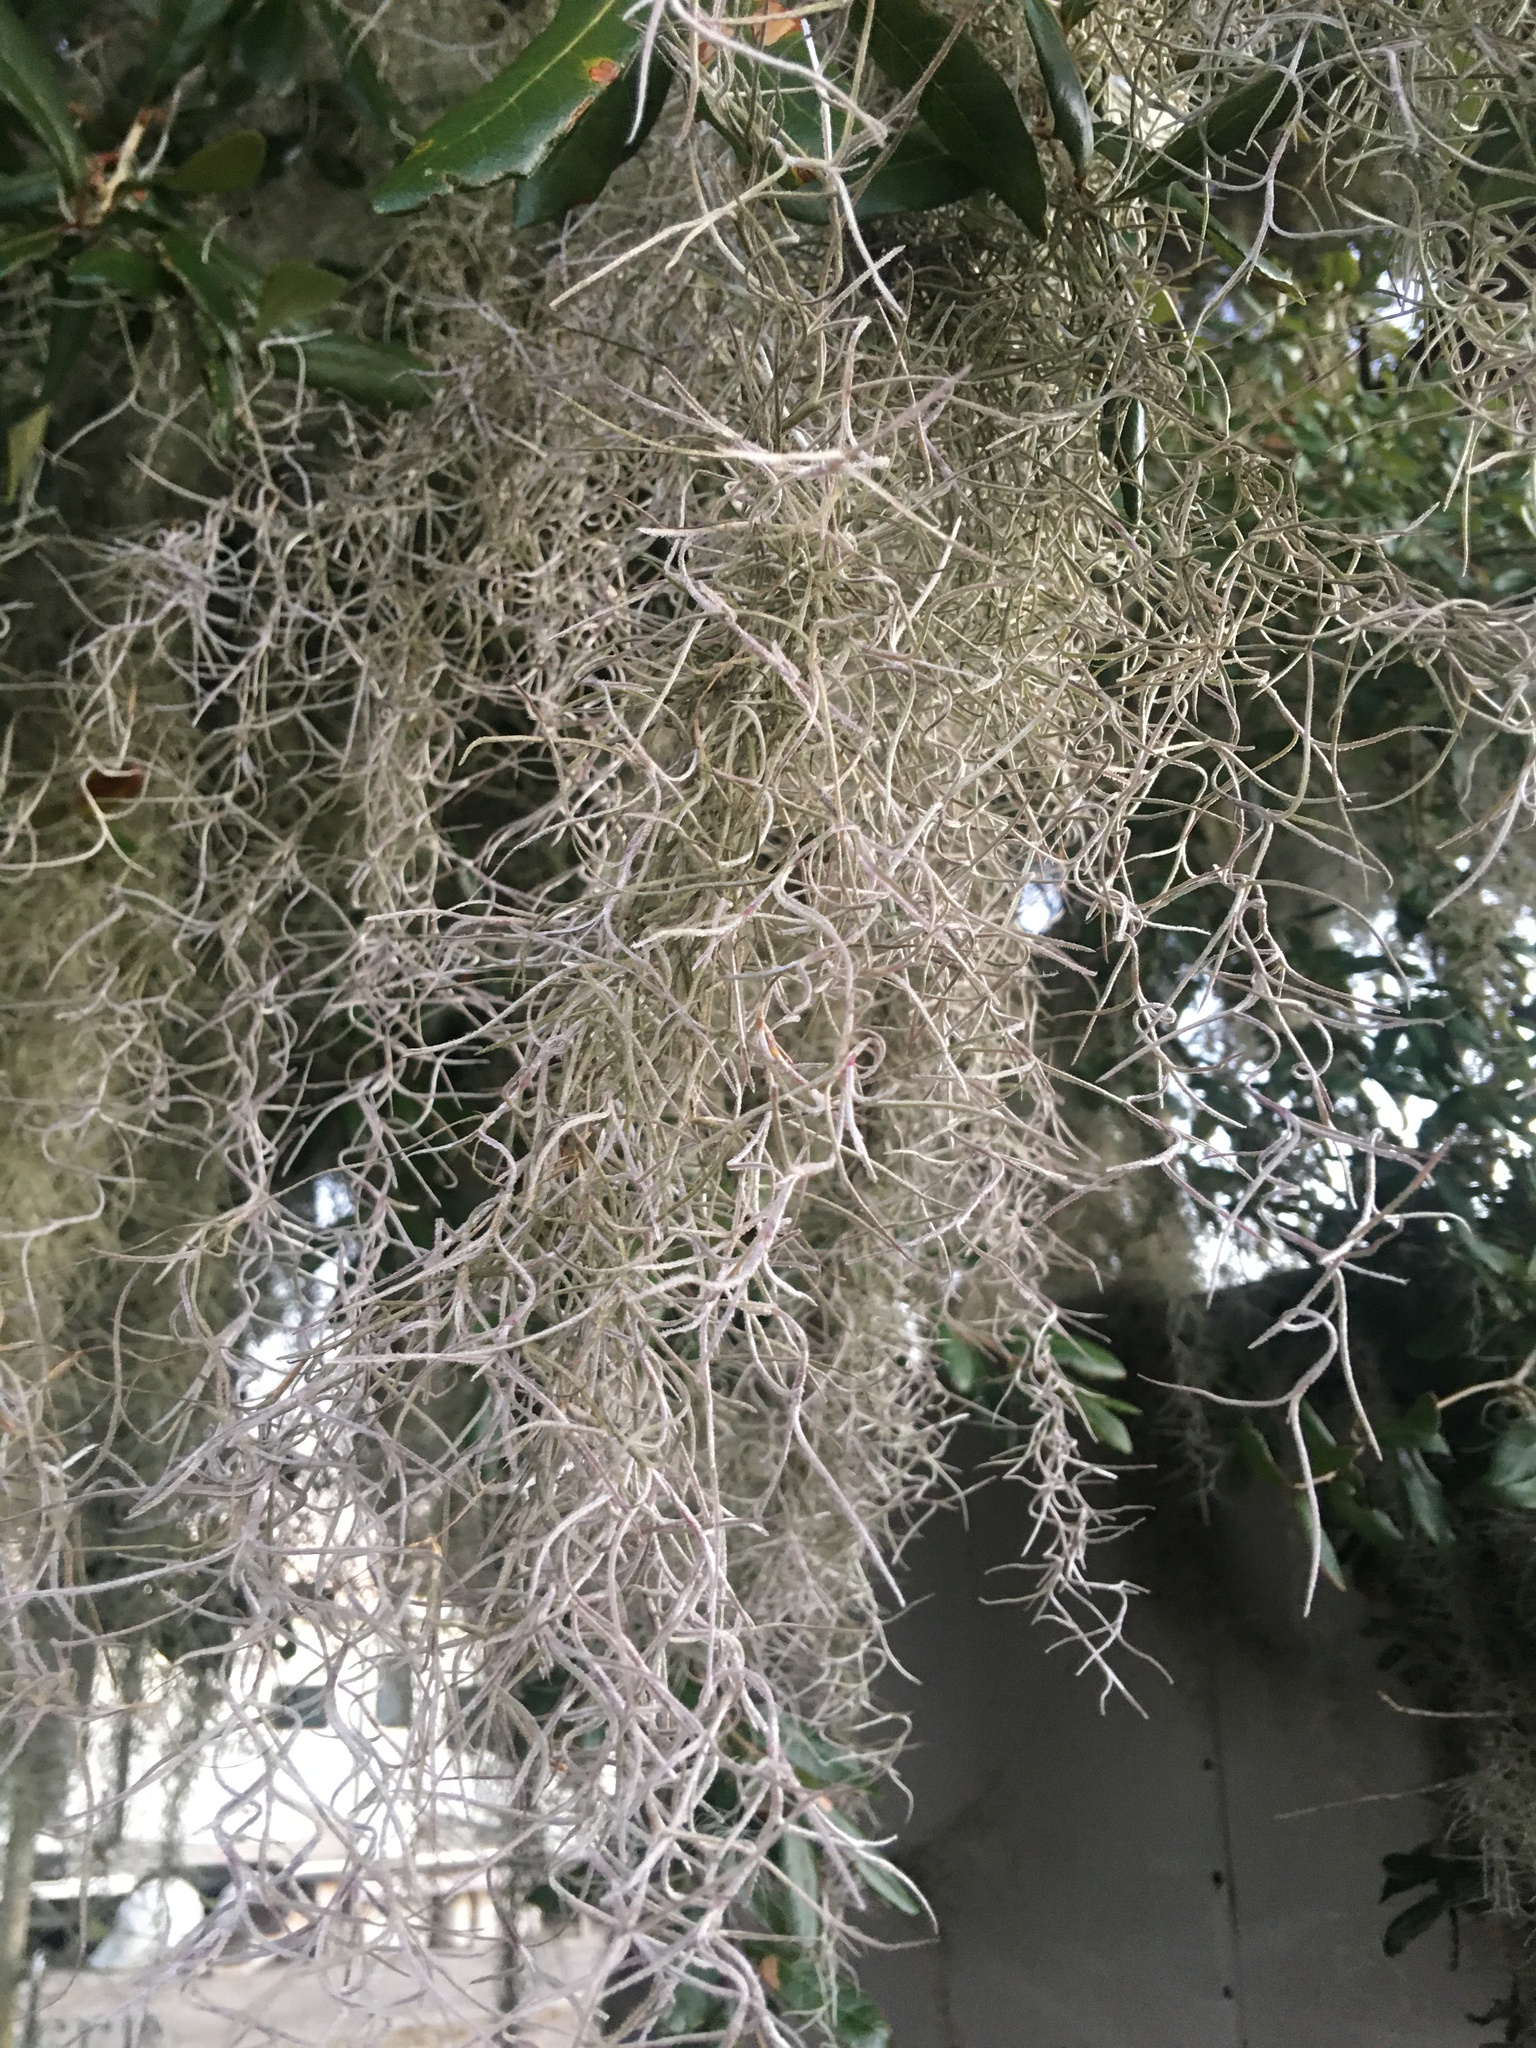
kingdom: Plantae
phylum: Tracheophyta
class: Liliopsida
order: Poales
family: Bromeliaceae
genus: Tillandsia
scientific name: Tillandsia usneoides
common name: Spanish moss
